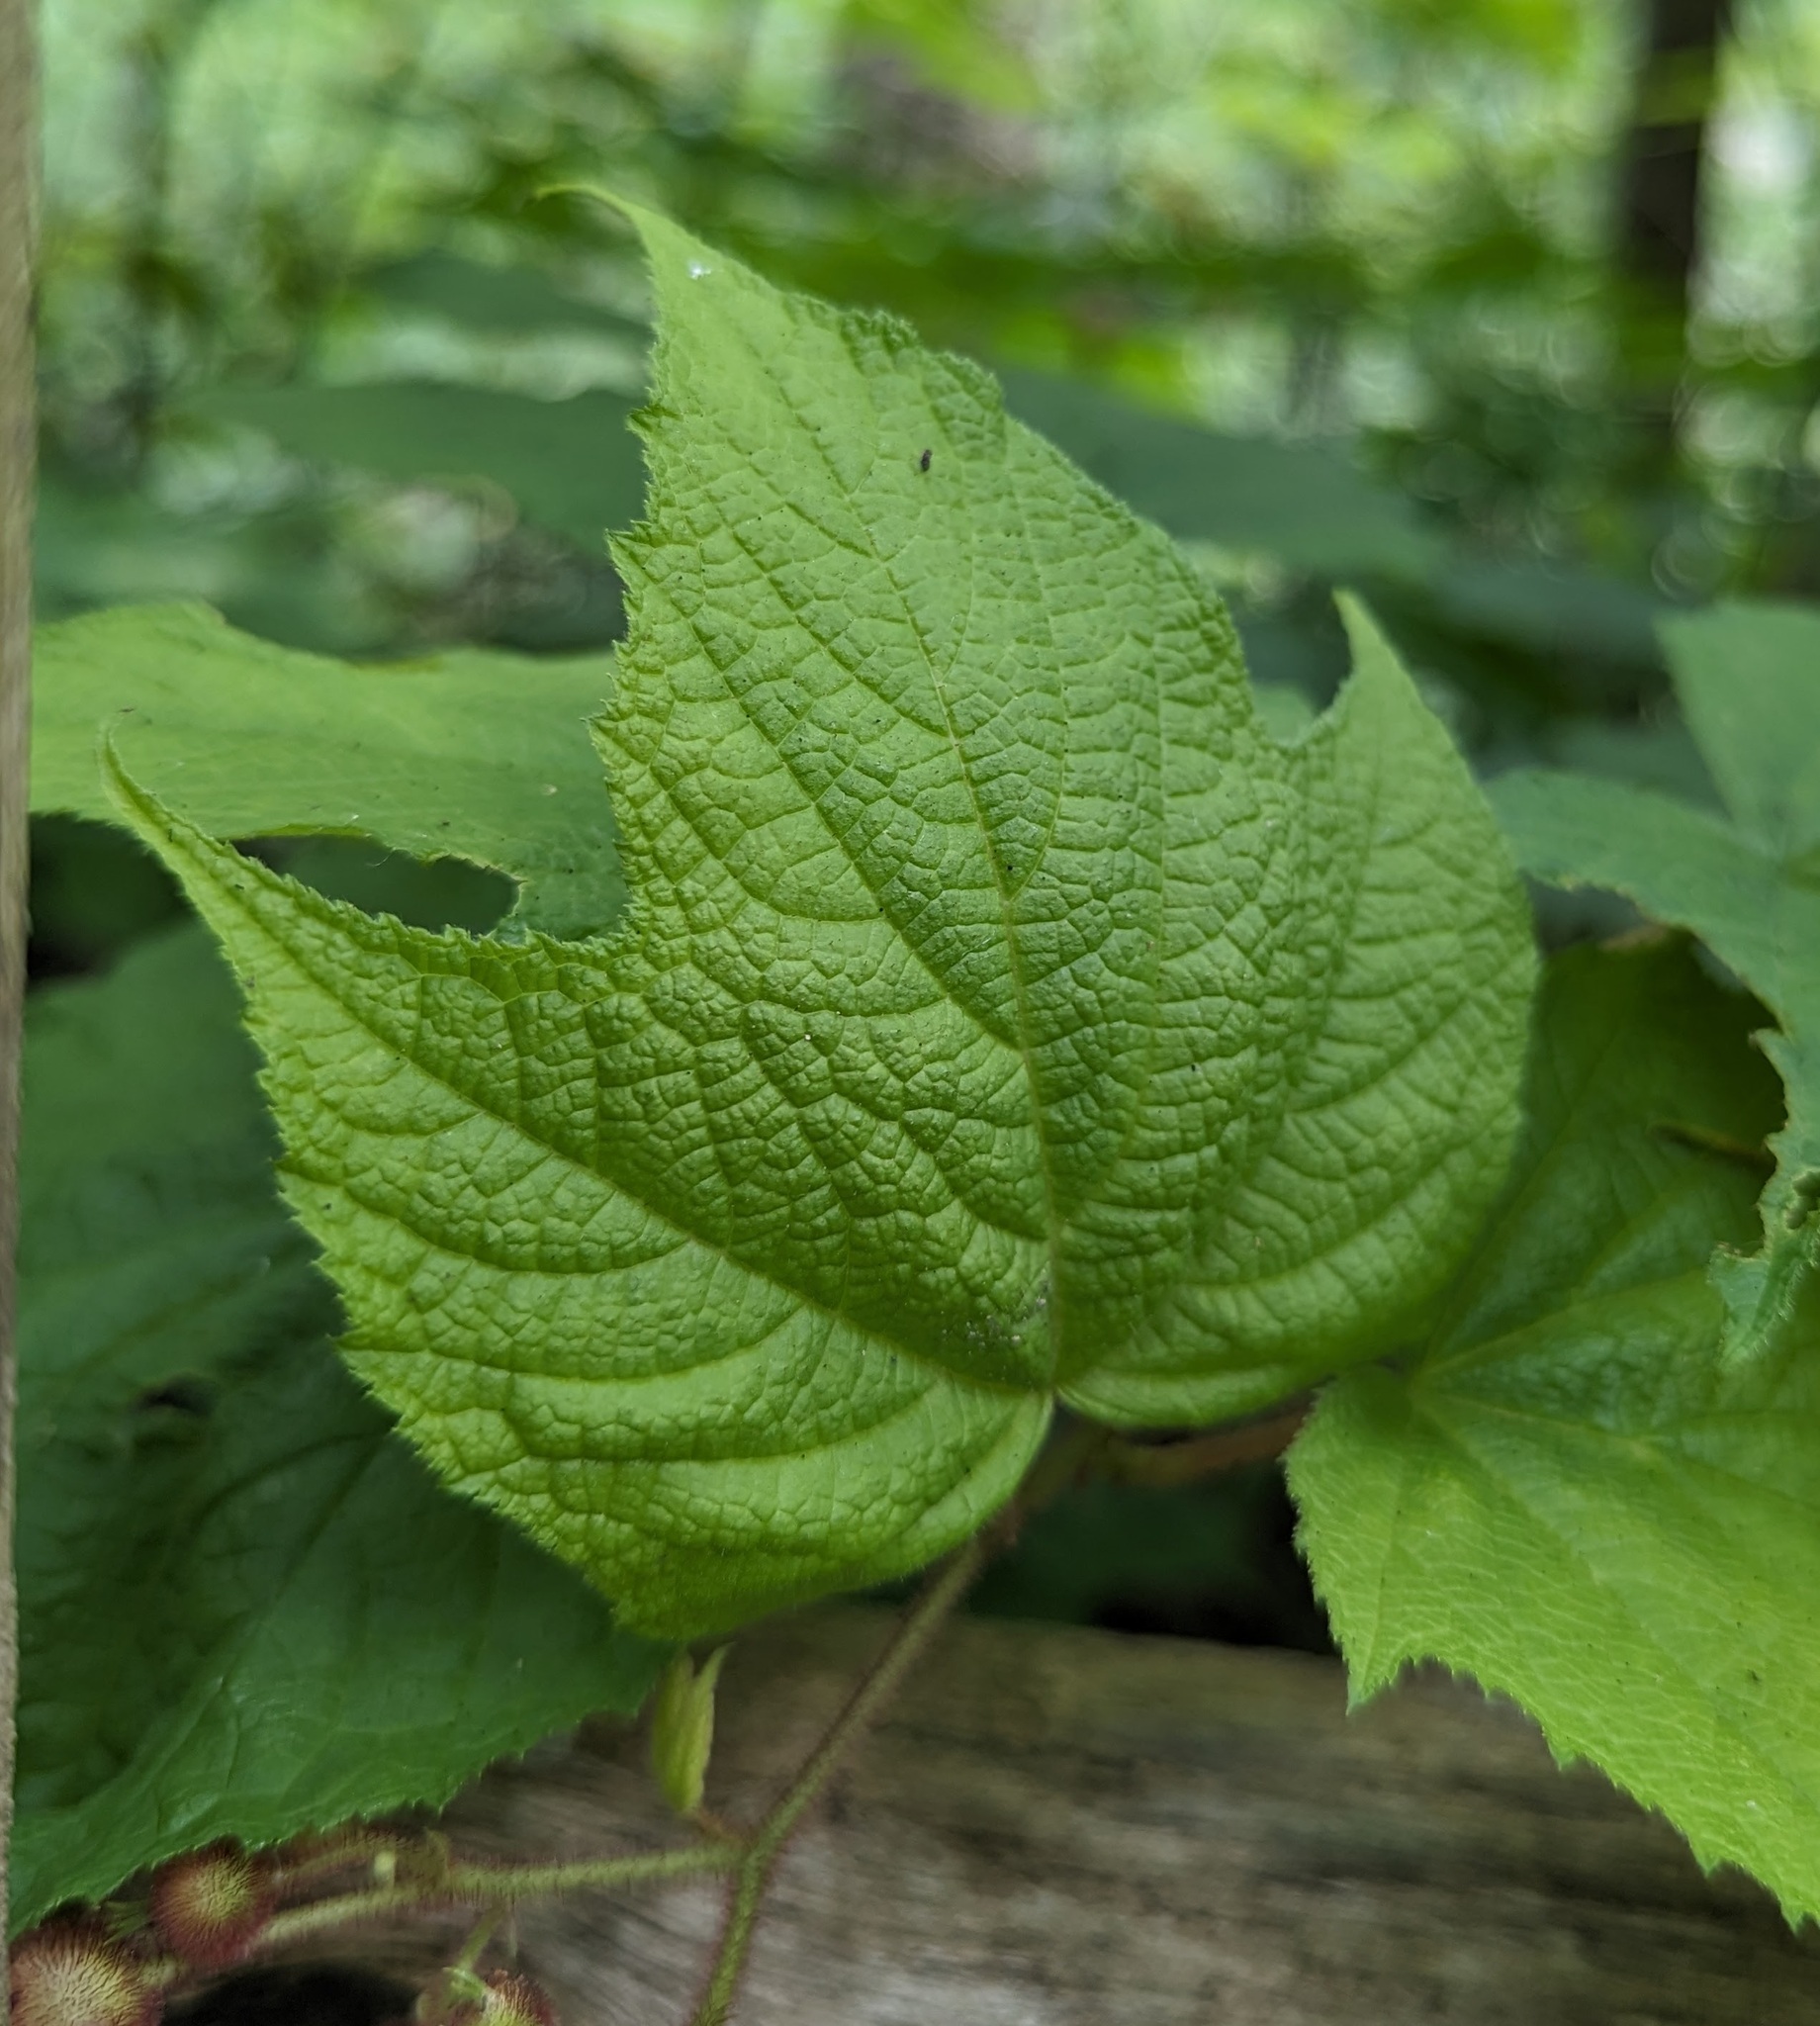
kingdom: Plantae
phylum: Tracheophyta
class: Magnoliopsida
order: Rosales
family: Rosaceae
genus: Rubus
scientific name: Rubus odoratus
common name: Purple-flowered raspberry
